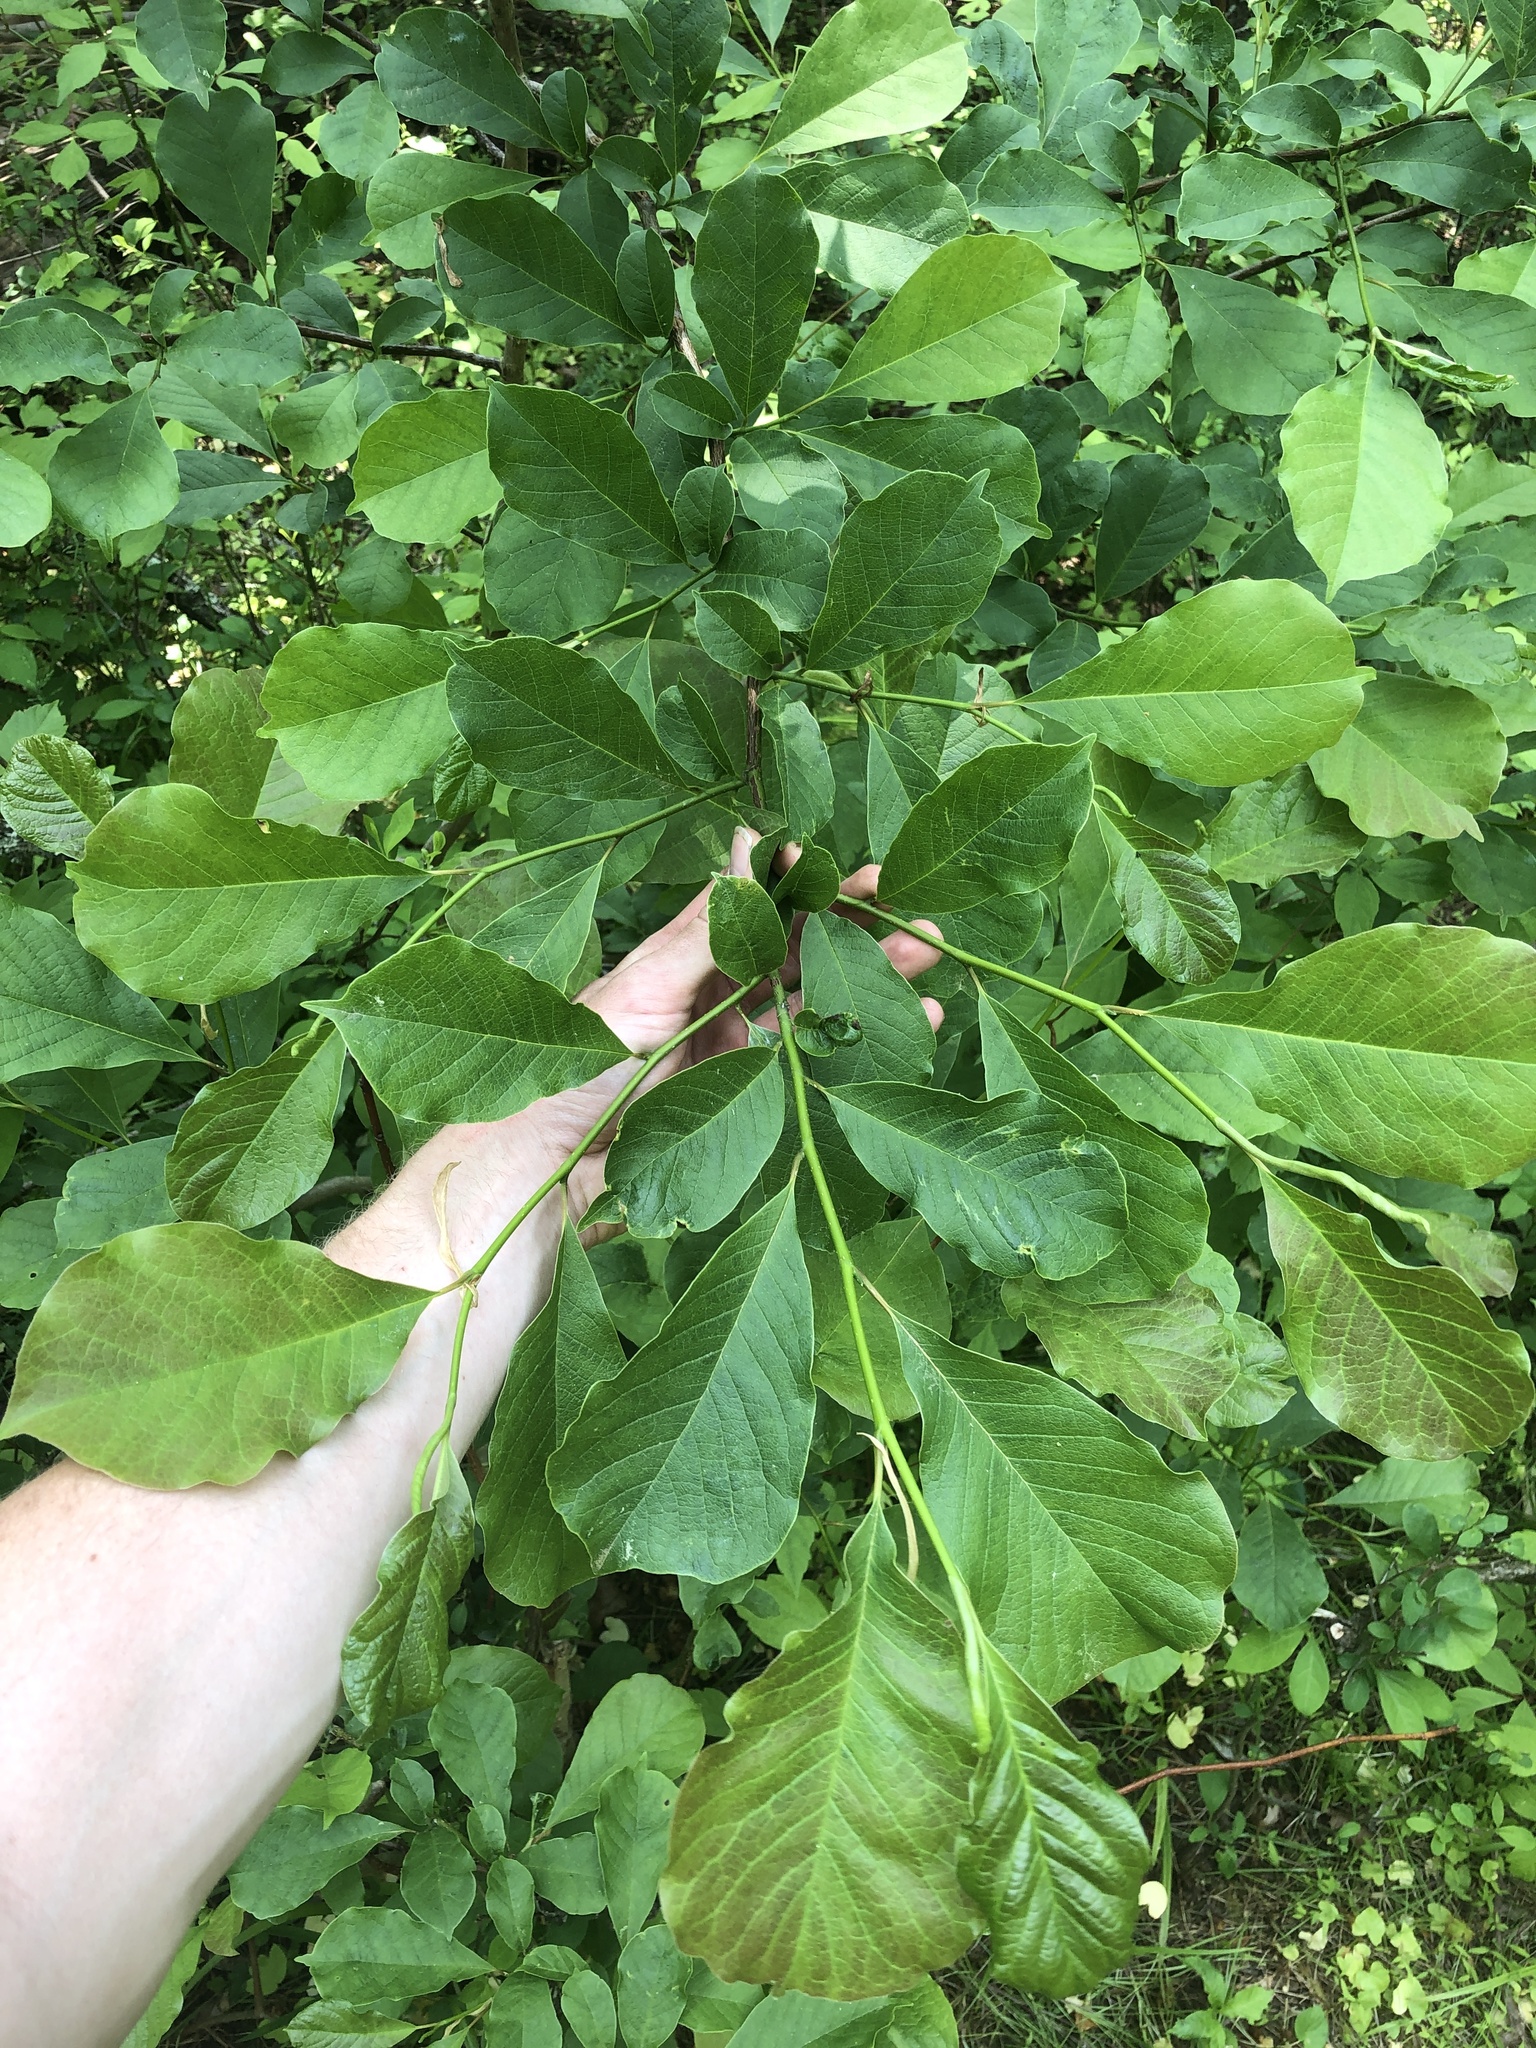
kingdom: Plantae
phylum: Tracheophyta
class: Magnoliopsida
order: Magnoliales
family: Magnoliaceae
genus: Magnolia
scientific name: Magnolia kobus
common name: Kobus magnolia
